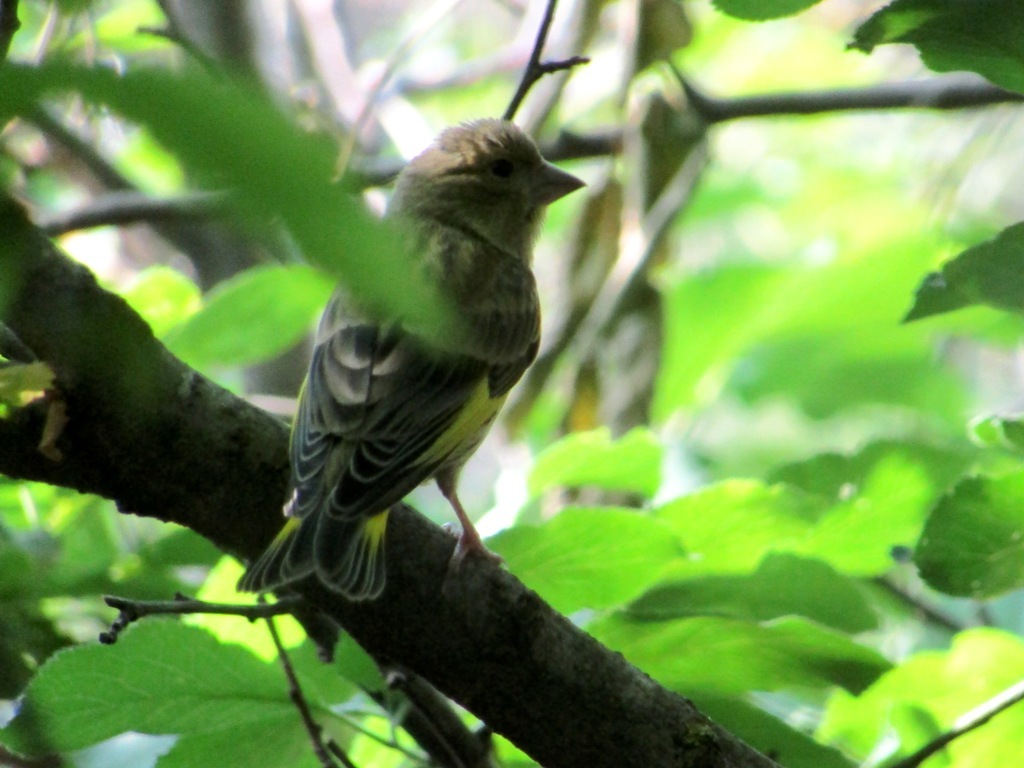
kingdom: Plantae
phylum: Tracheophyta
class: Liliopsida
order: Poales
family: Poaceae
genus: Chloris
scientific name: Chloris chloris
